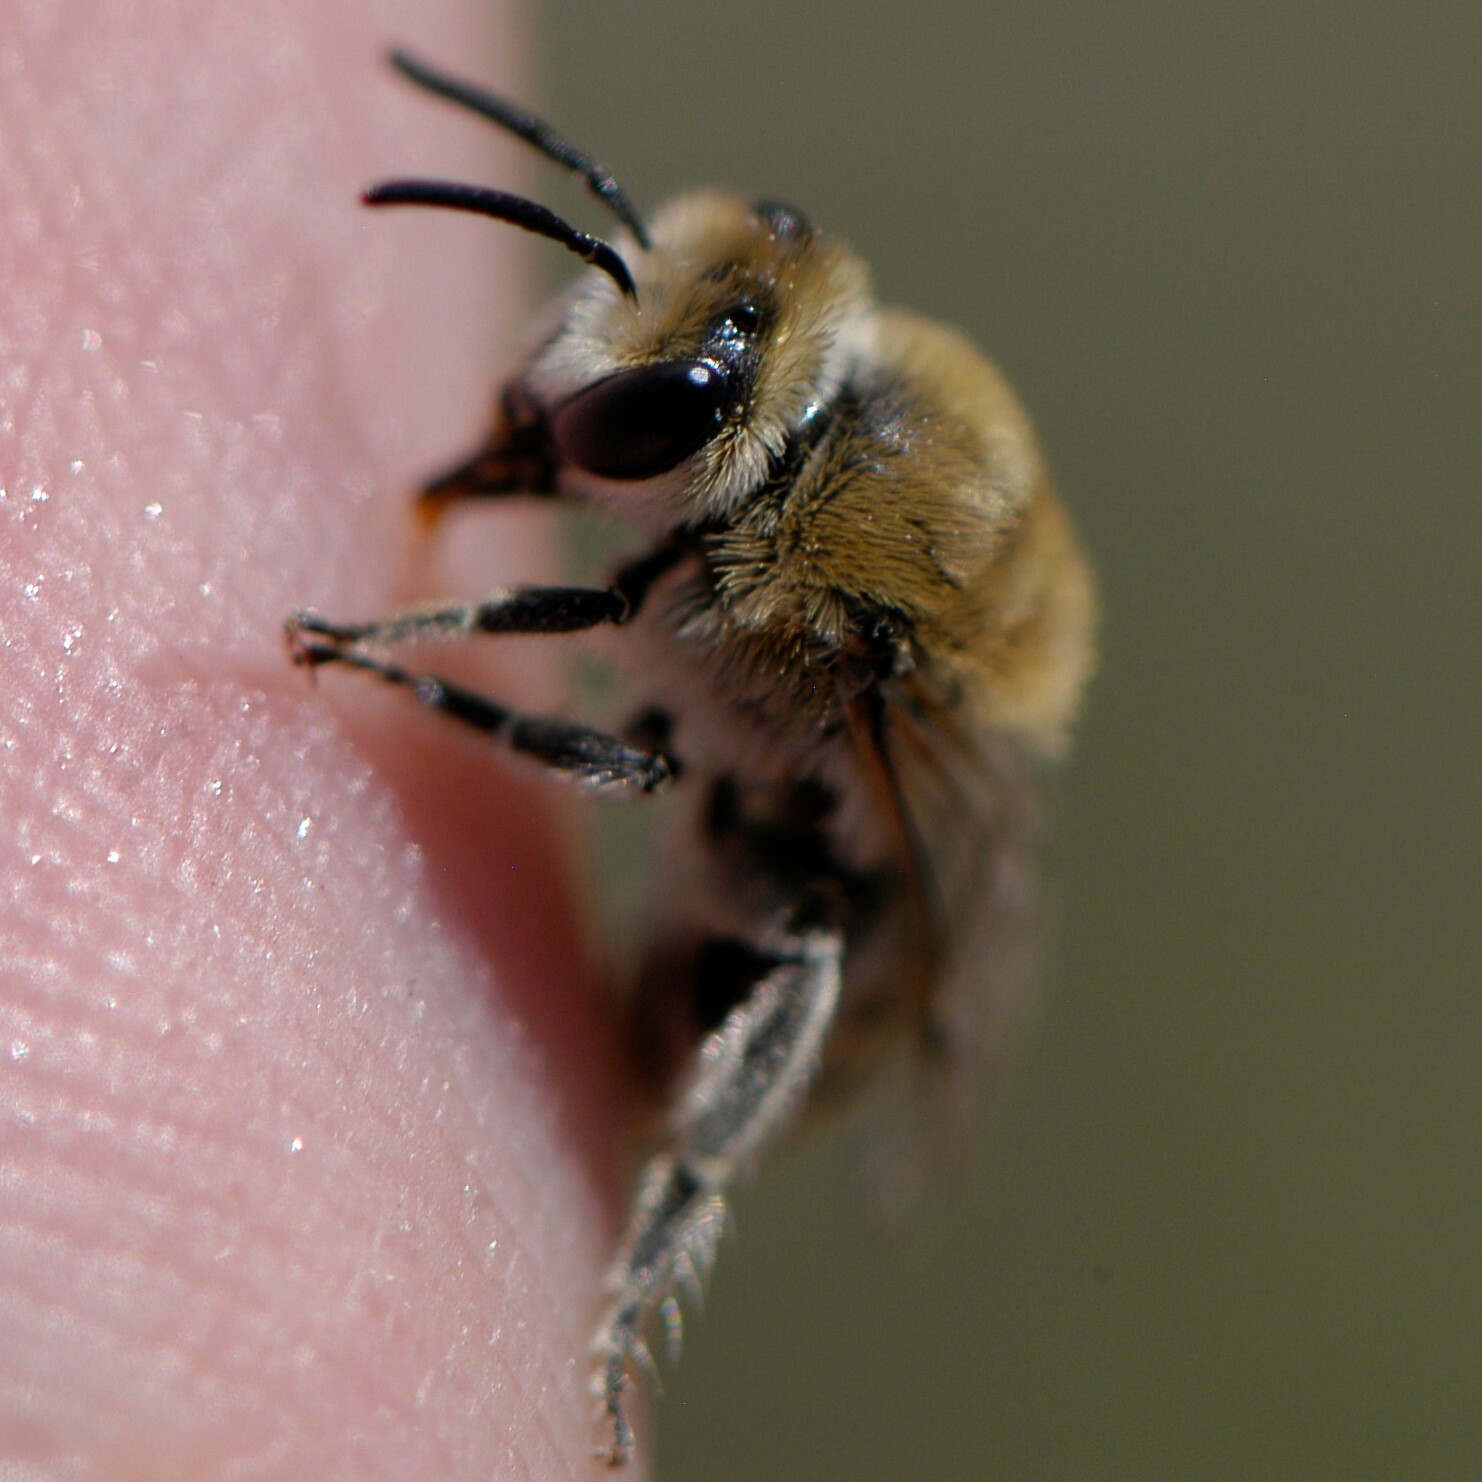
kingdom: Animalia
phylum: Arthropoda
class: Insecta
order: Hymenoptera
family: Colletidae
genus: Colletes
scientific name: Colletes
